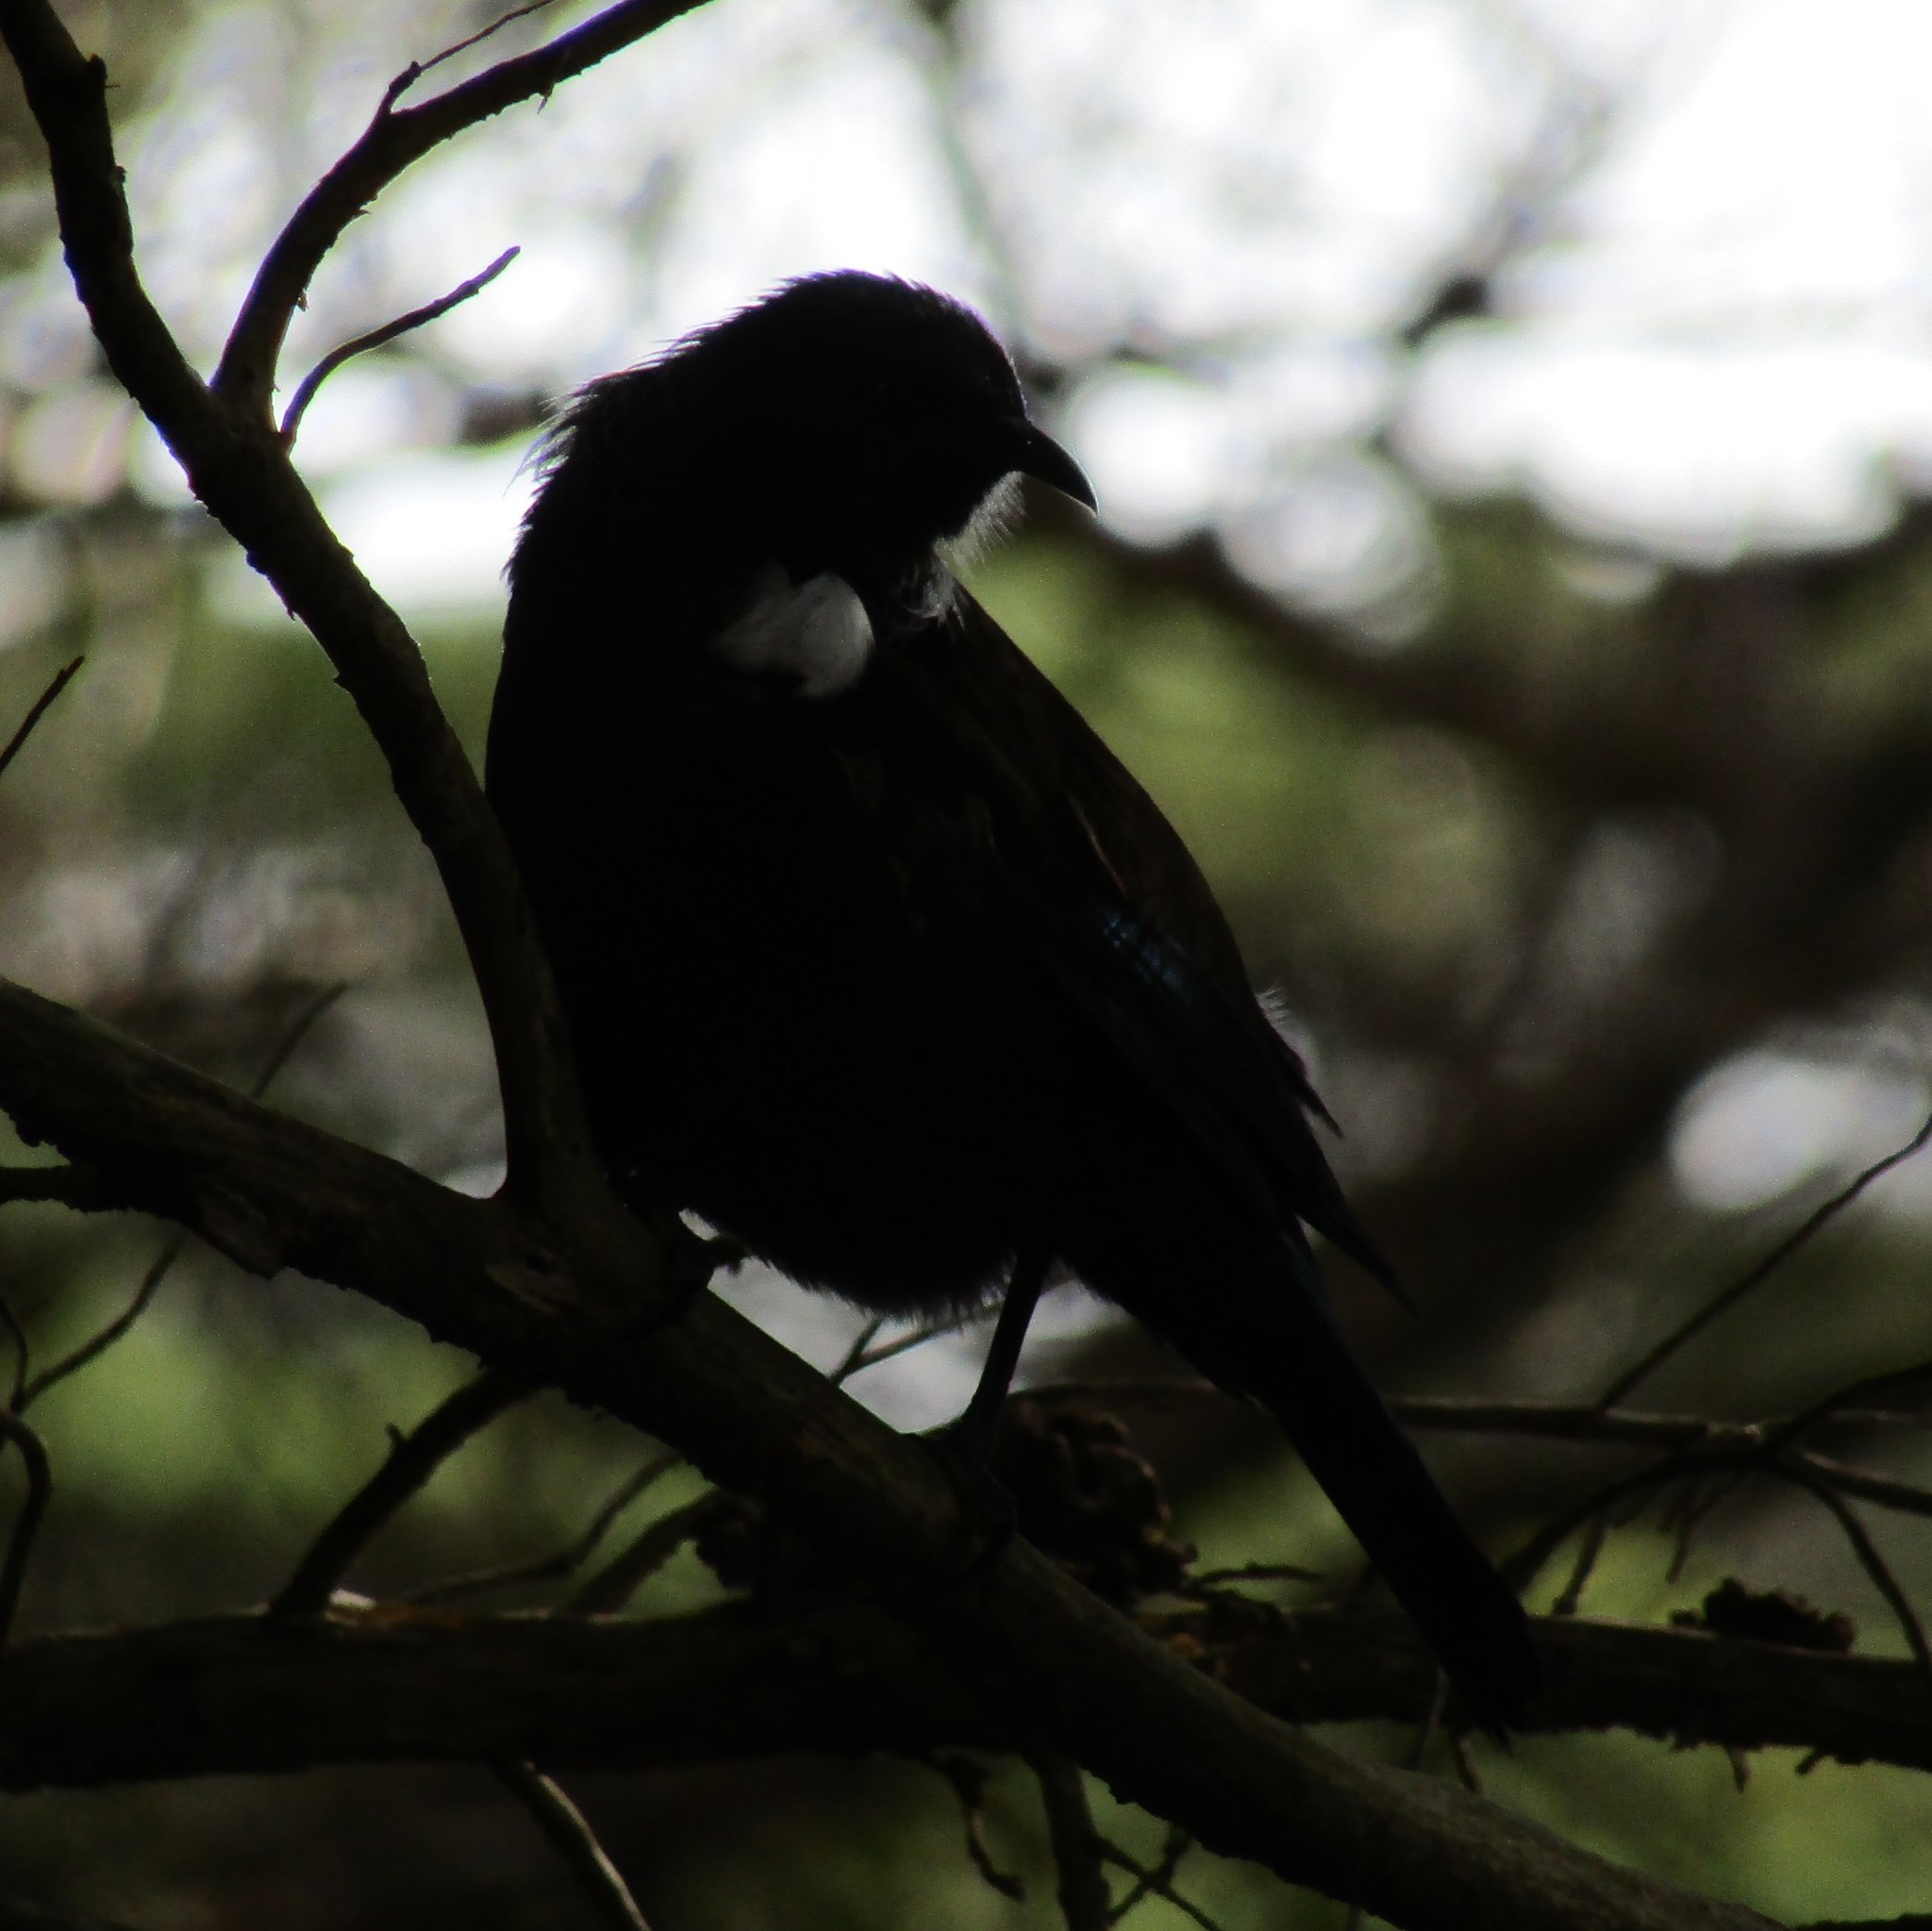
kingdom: Animalia
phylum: Chordata
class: Aves
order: Passeriformes
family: Meliphagidae
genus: Prosthemadera
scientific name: Prosthemadera novaeseelandiae
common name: Tui
